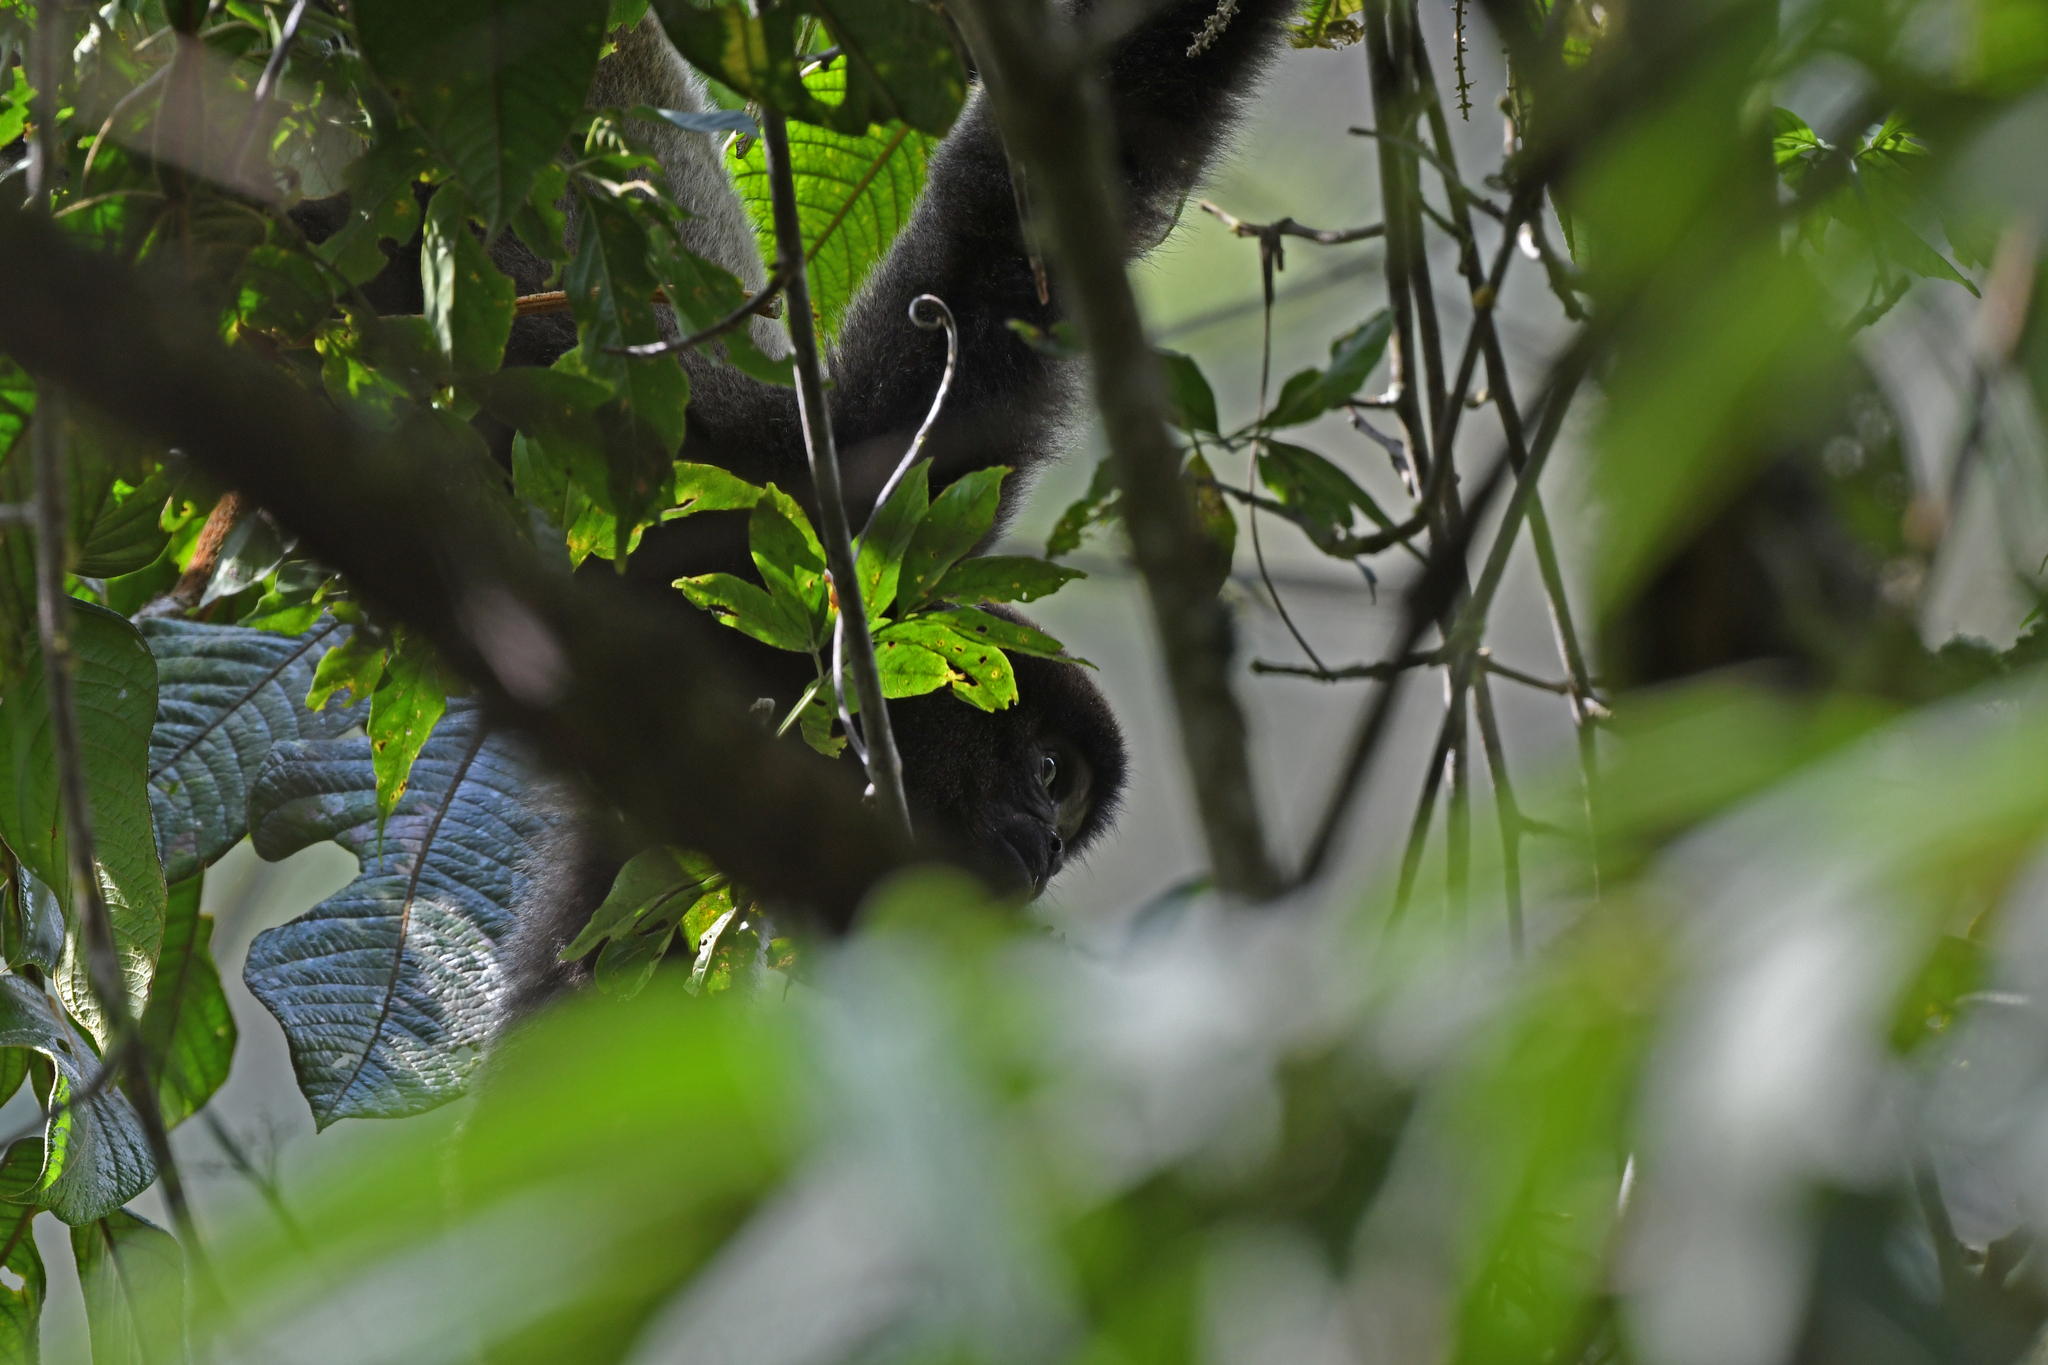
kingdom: Animalia
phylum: Chordata
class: Mammalia
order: Primates
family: Atelidae
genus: Lagothrix
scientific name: Lagothrix lagothricha
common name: Brown woolly monkey
